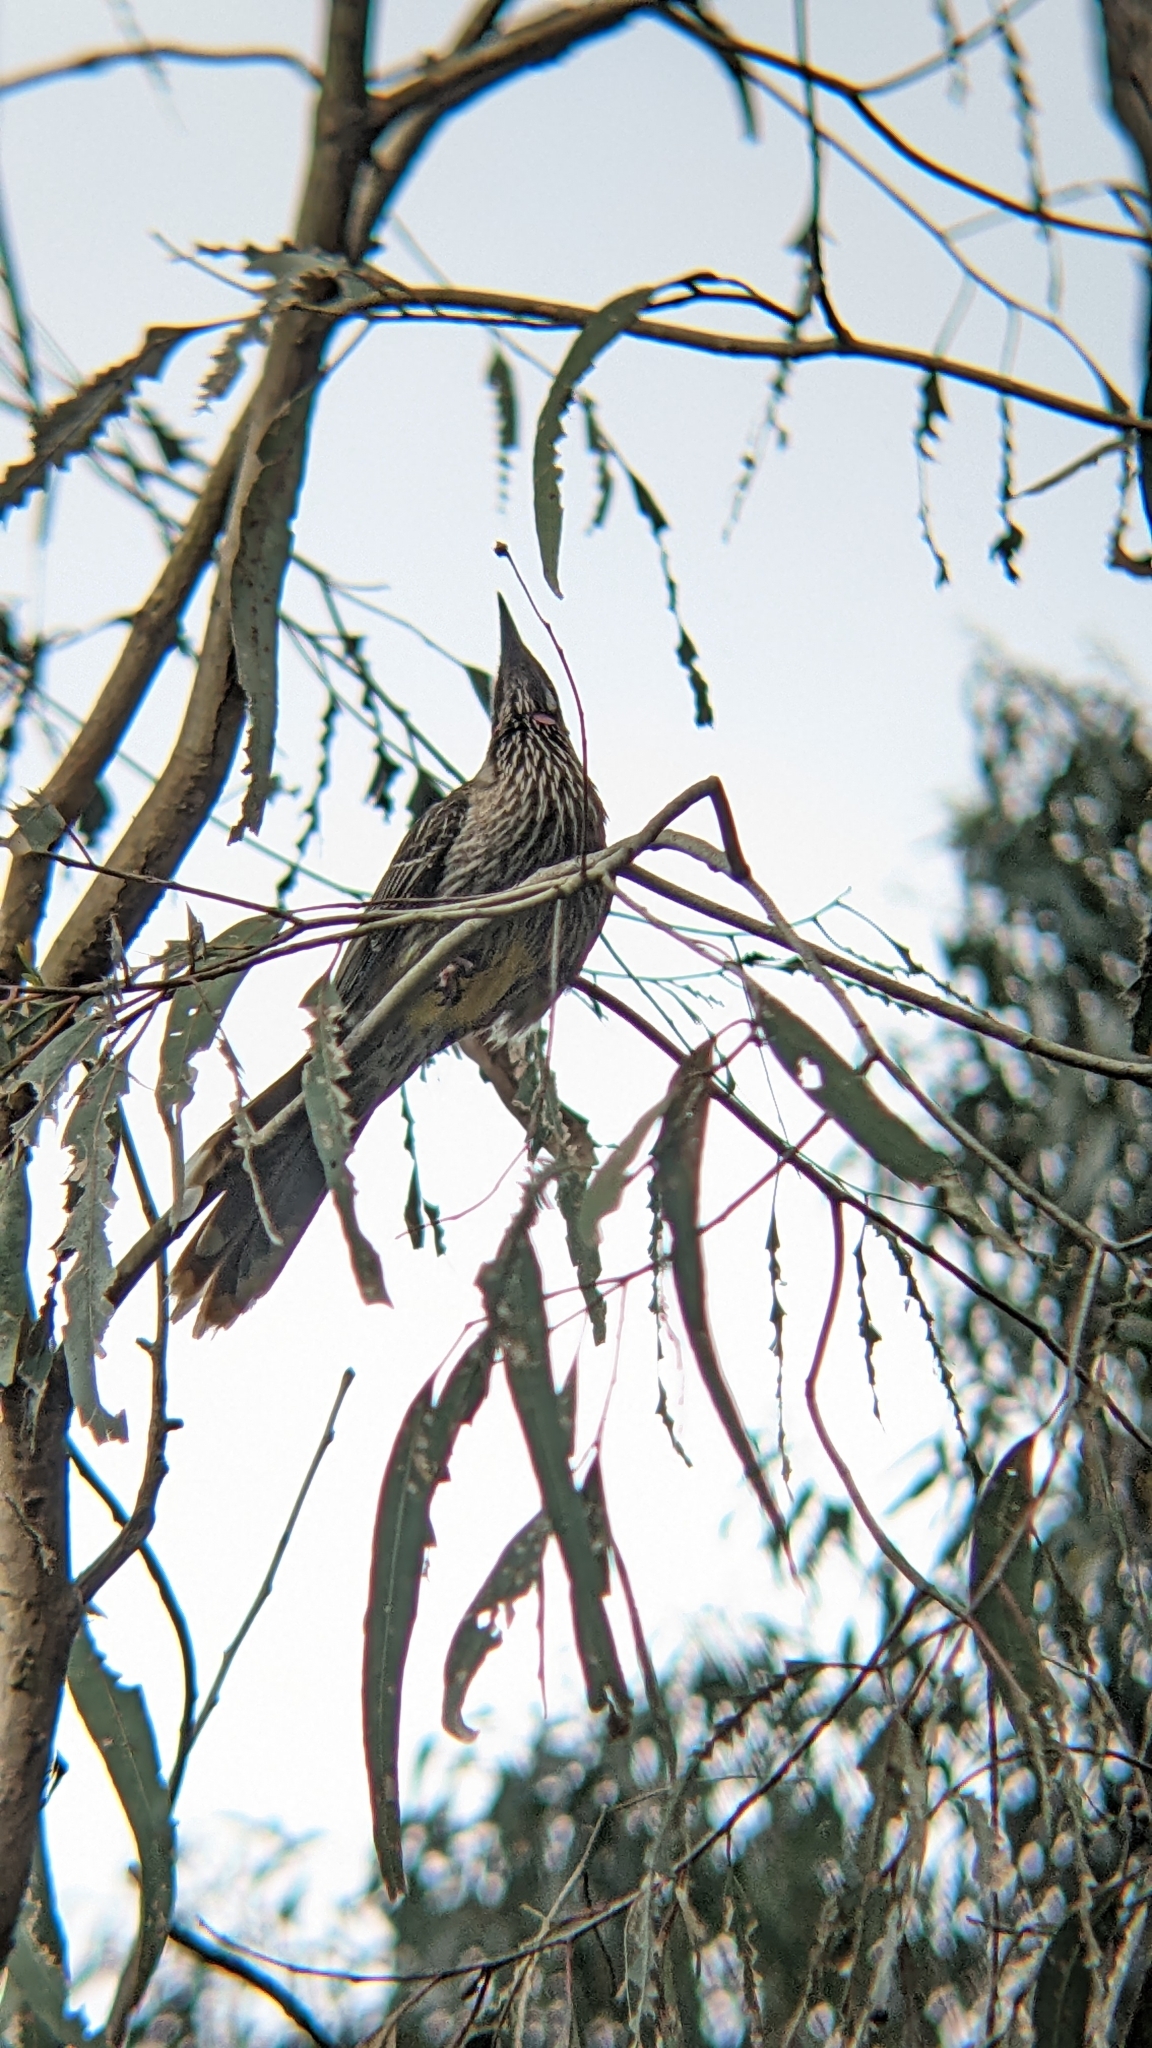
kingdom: Animalia
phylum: Chordata
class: Aves
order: Passeriformes
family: Meliphagidae
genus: Anthochaera
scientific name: Anthochaera carunculata
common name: Red wattlebird
